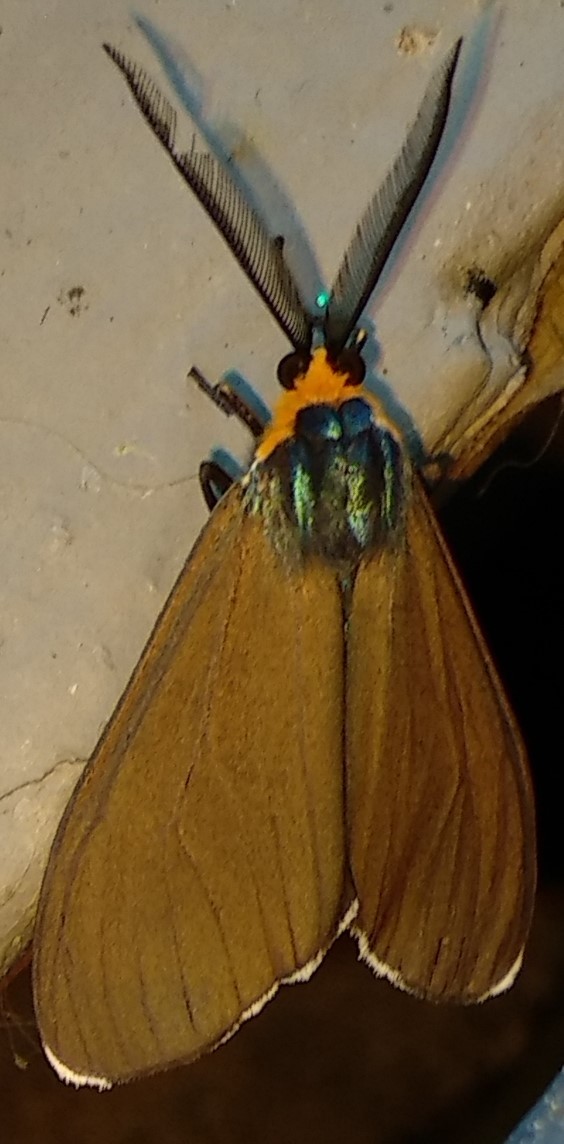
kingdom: Animalia
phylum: Arthropoda
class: Insecta
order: Lepidoptera
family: Erebidae
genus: Ctenucha
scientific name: Ctenucha virginica
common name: Virginia ctenucha moth
